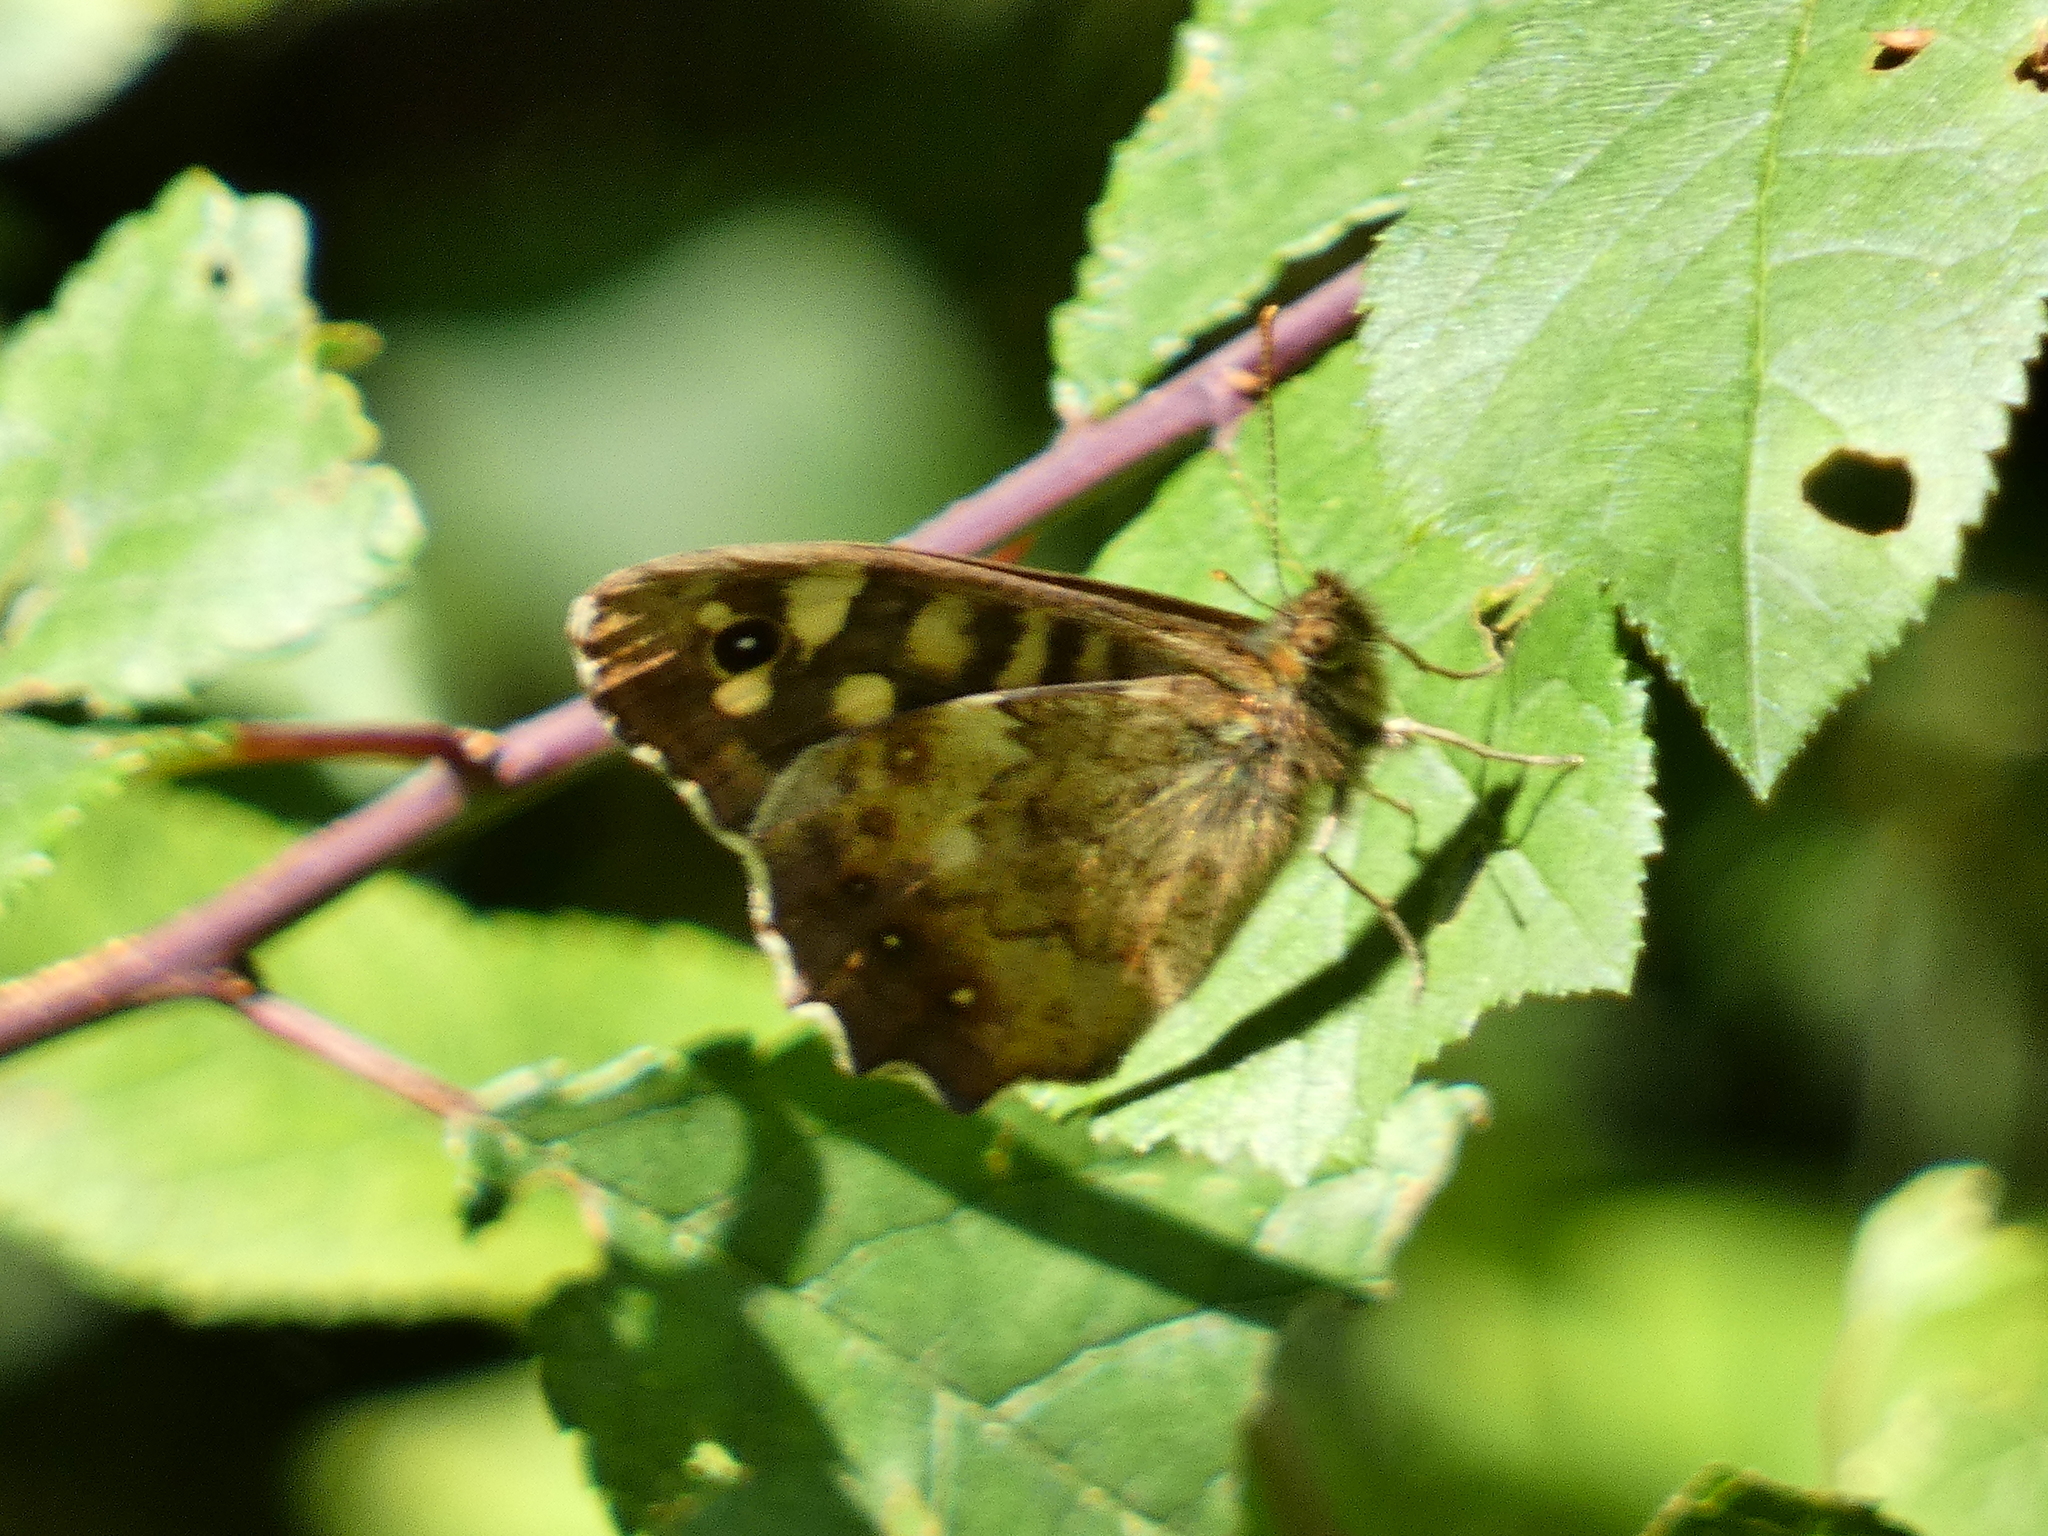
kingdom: Animalia
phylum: Arthropoda
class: Insecta
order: Lepidoptera
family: Nymphalidae
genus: Pararge
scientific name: Pararge aegeria
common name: Speckled wood
